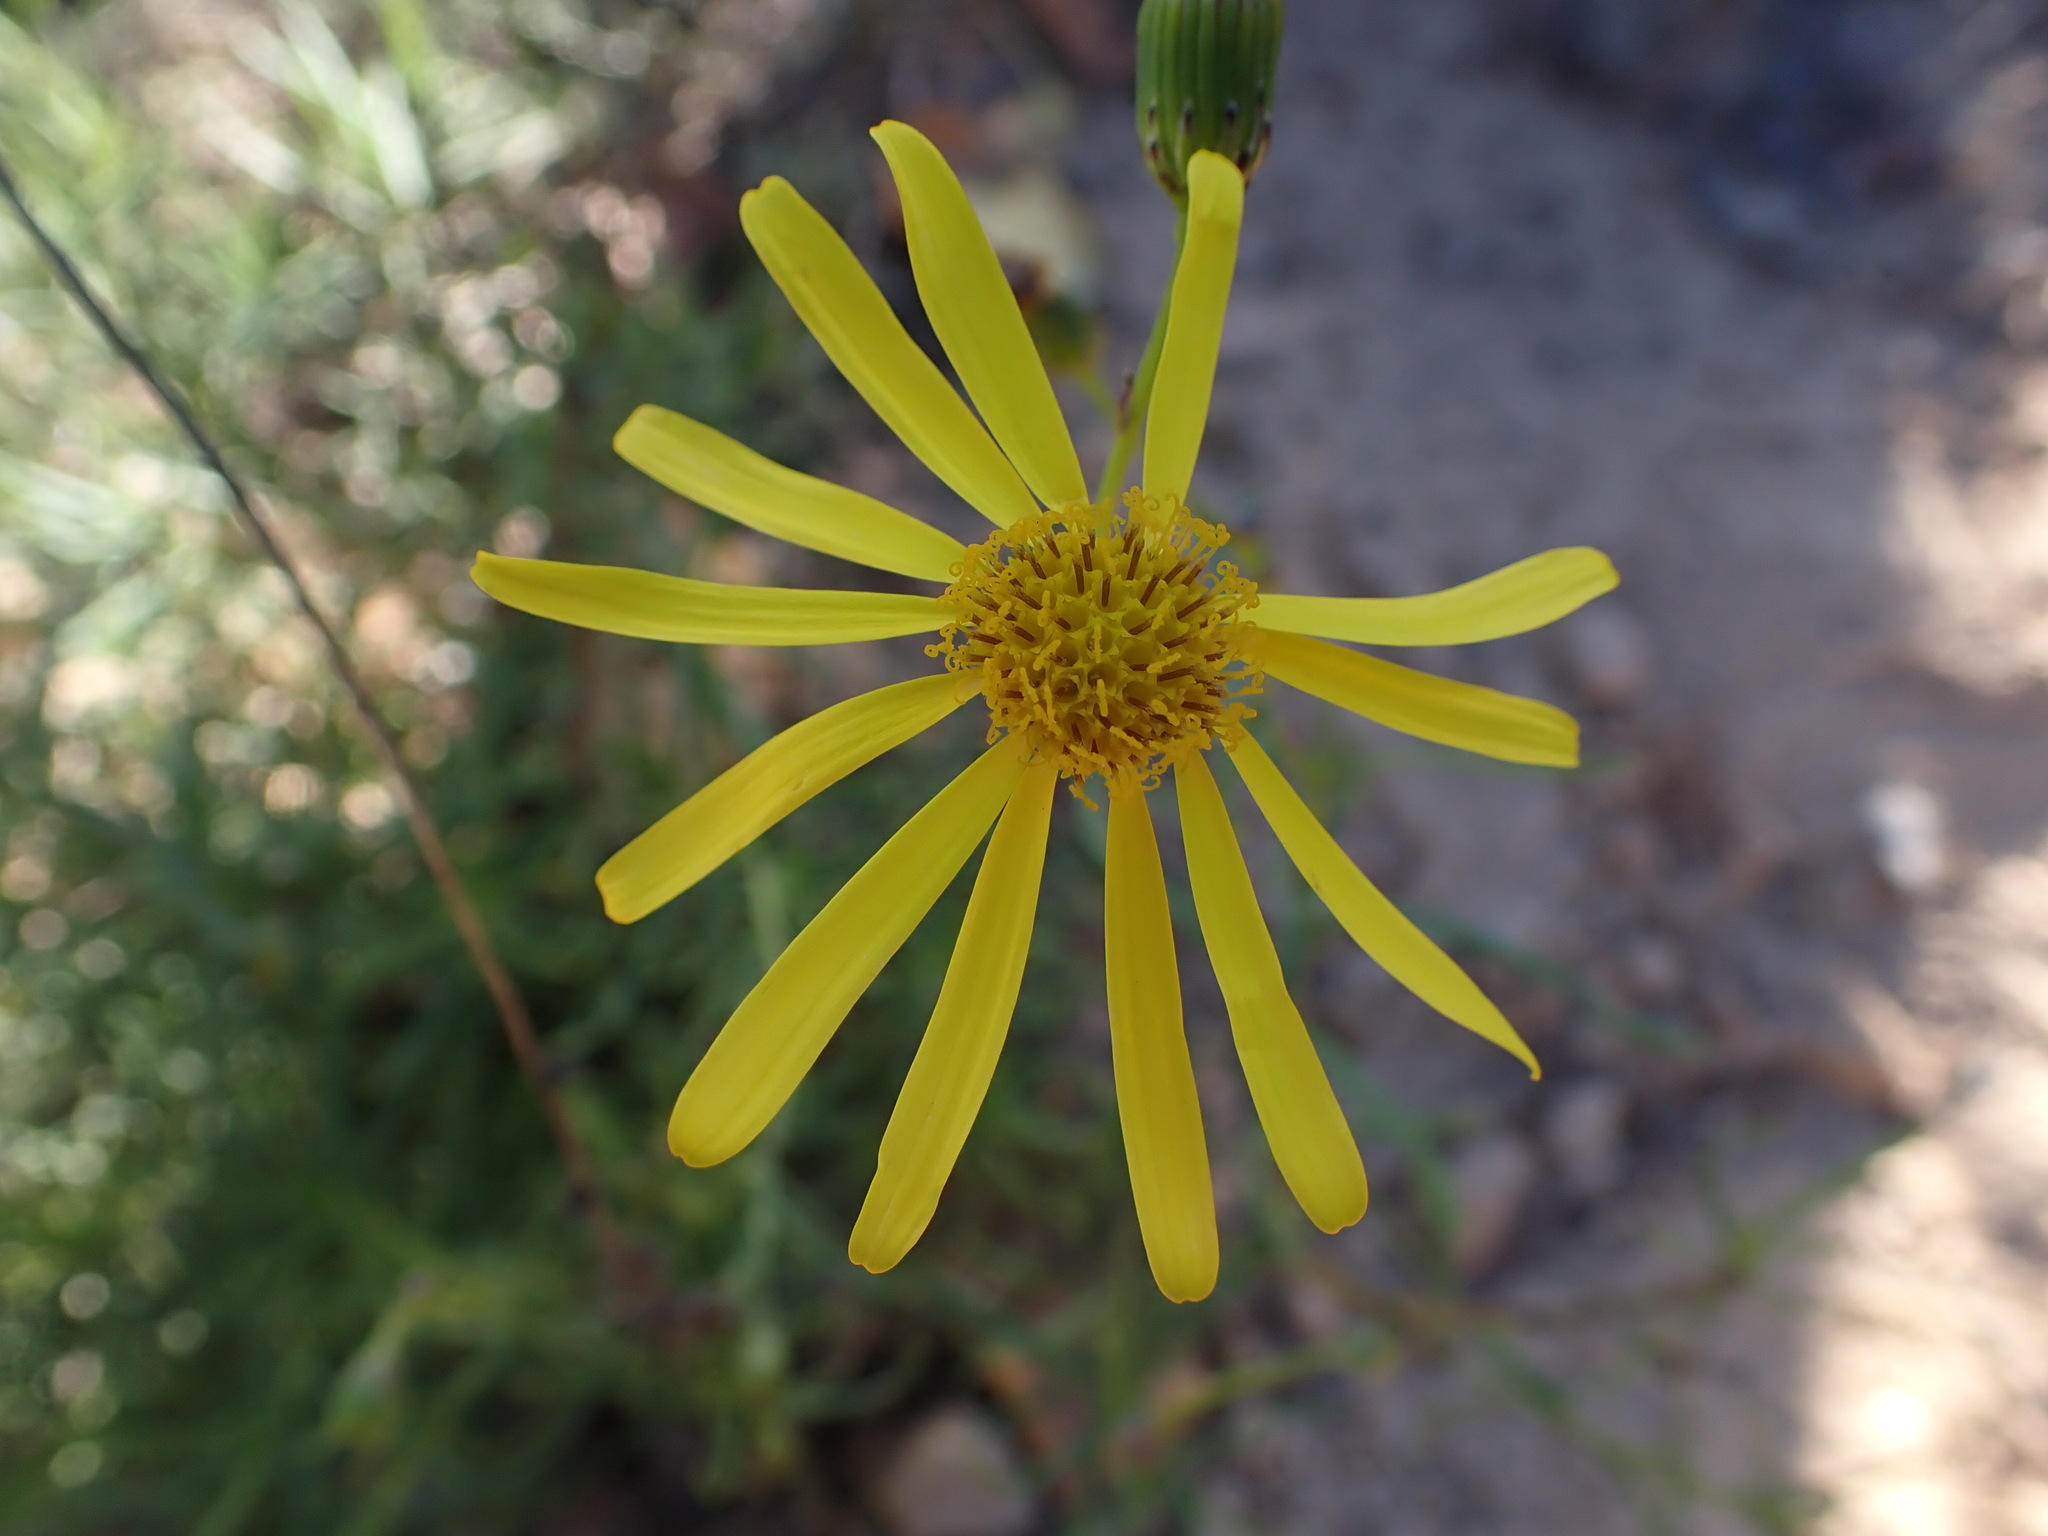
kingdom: Plantae
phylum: Tracheophyta
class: Magnoliopsida
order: Asterales
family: Asteraceae
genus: Senecio
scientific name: Senecio inaequidens
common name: Narrow-leaved ragwort
